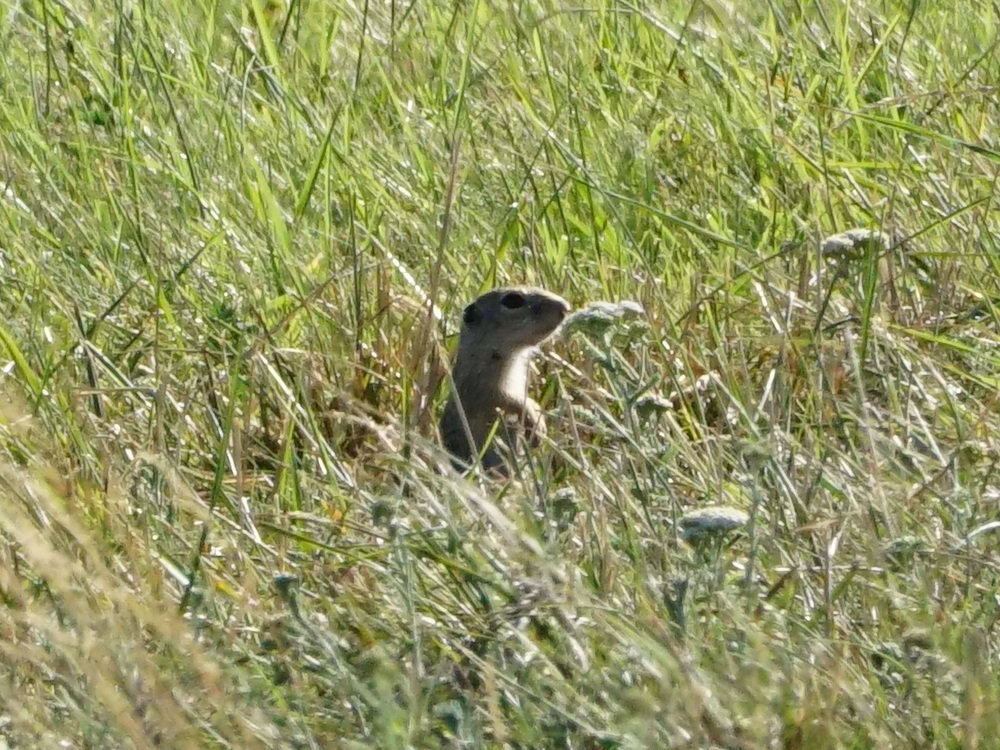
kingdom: Animalia
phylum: Chordata
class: Mammalia
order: Rodentia
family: Sciuridae
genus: Spermophilus
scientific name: Spermophilus citellus
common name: European ground squirrel
